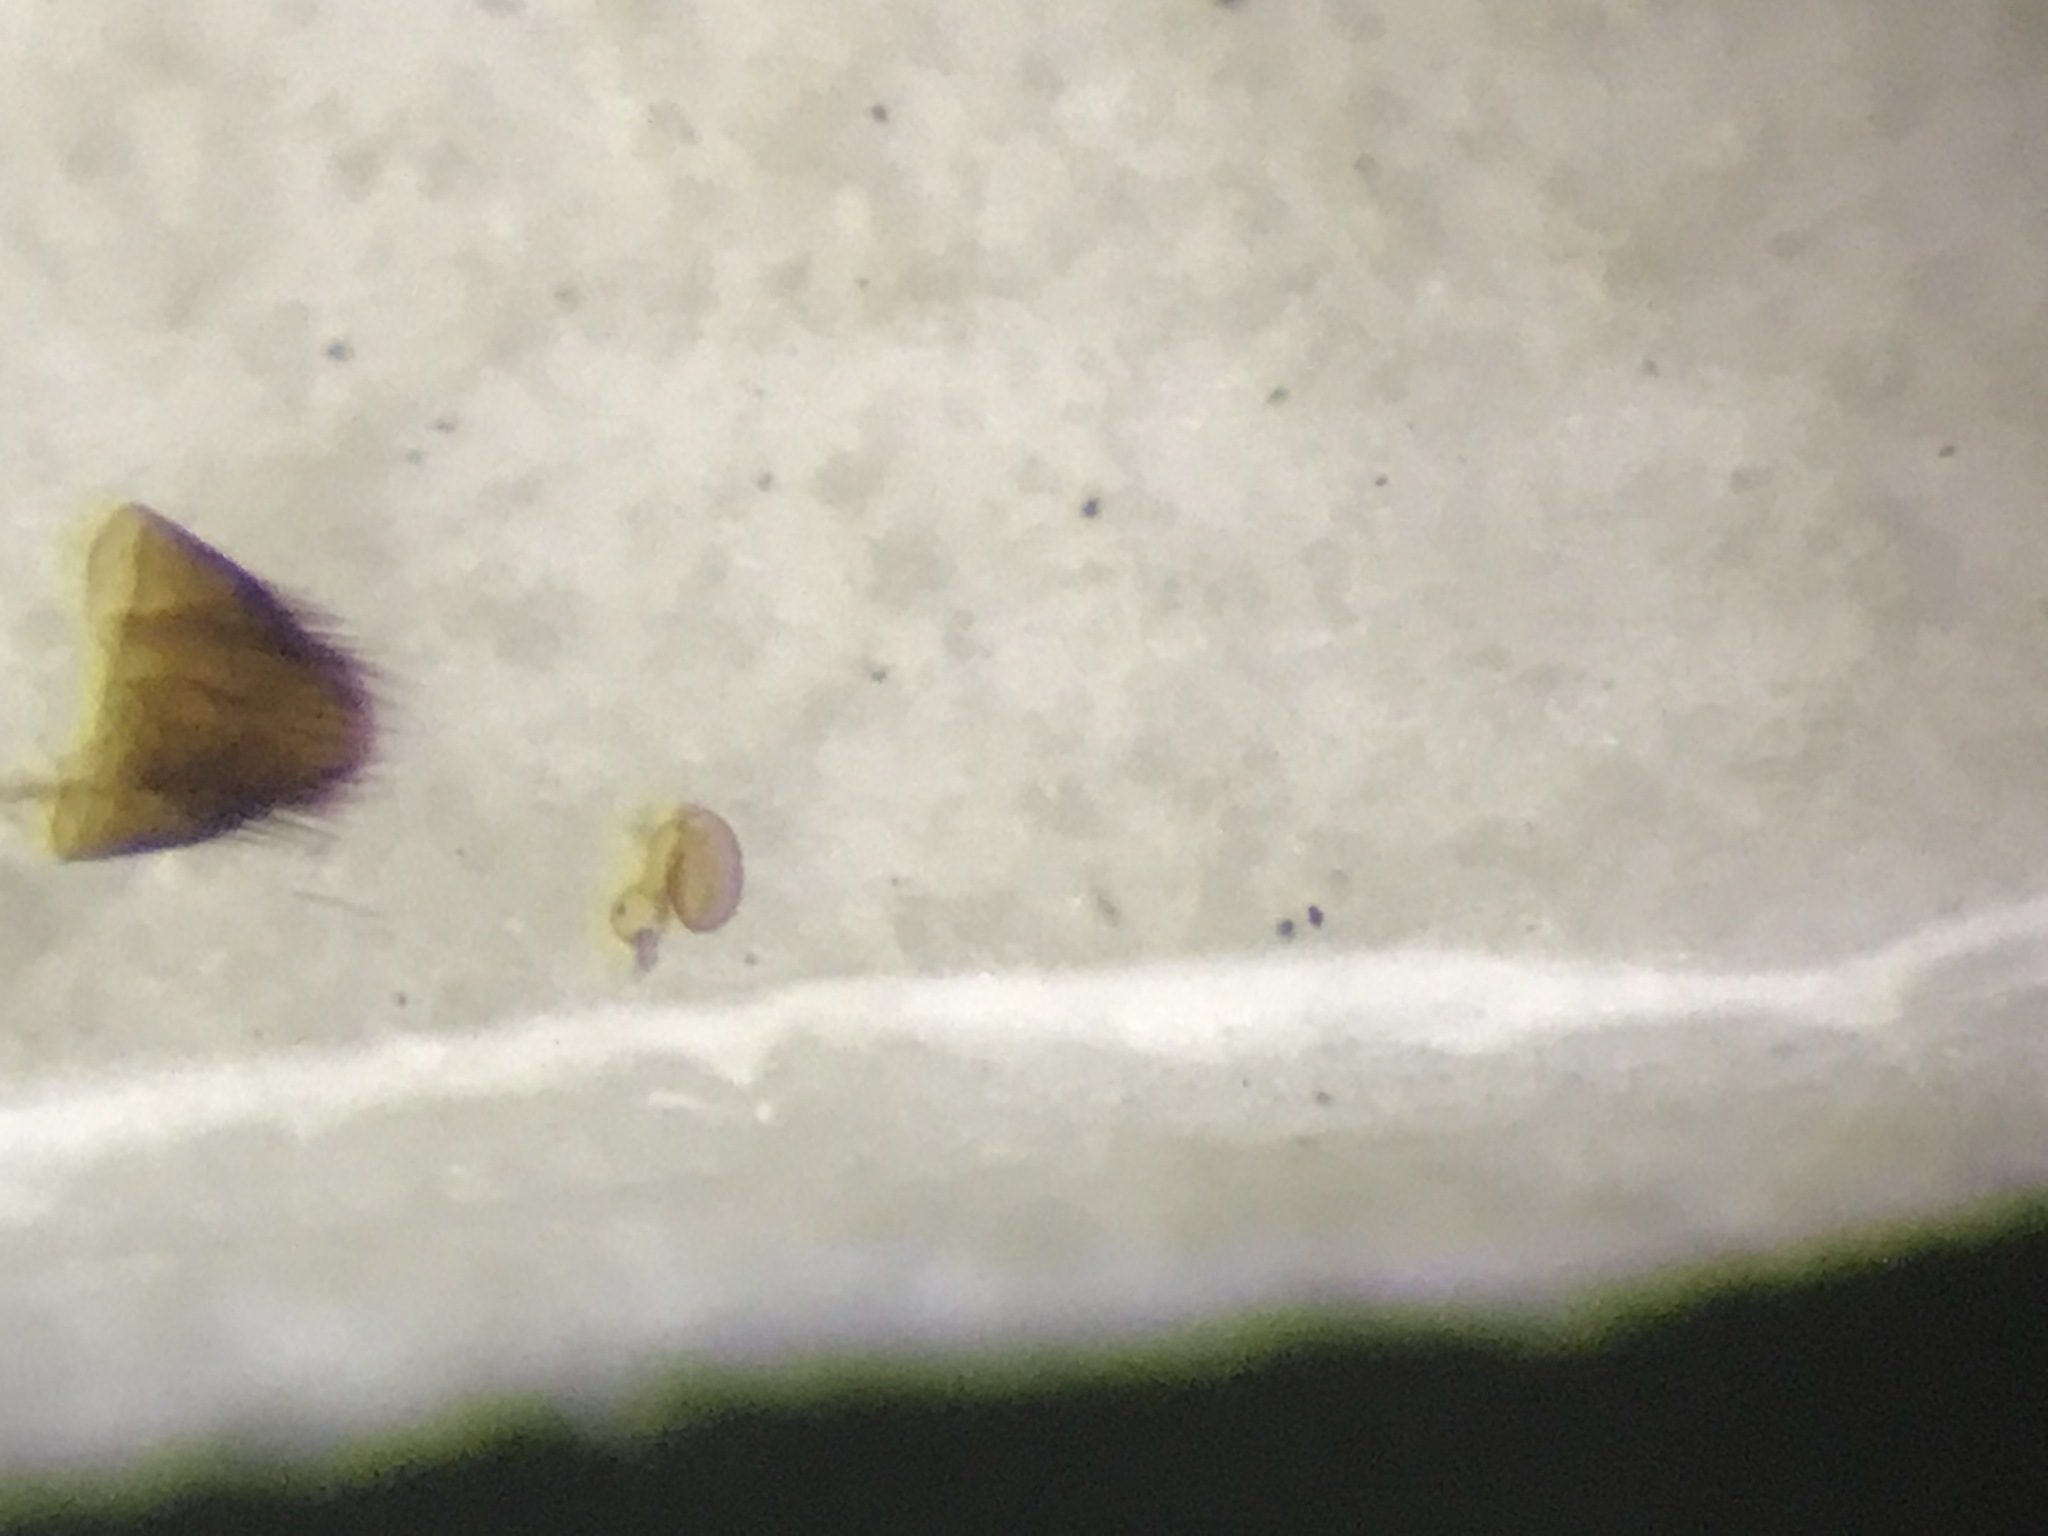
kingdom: Animalia
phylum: Arthropoda
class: Insecta
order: Coleoptera
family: Staphylinidae
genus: Oligota
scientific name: Oligota pusillima
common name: Rove beetle
